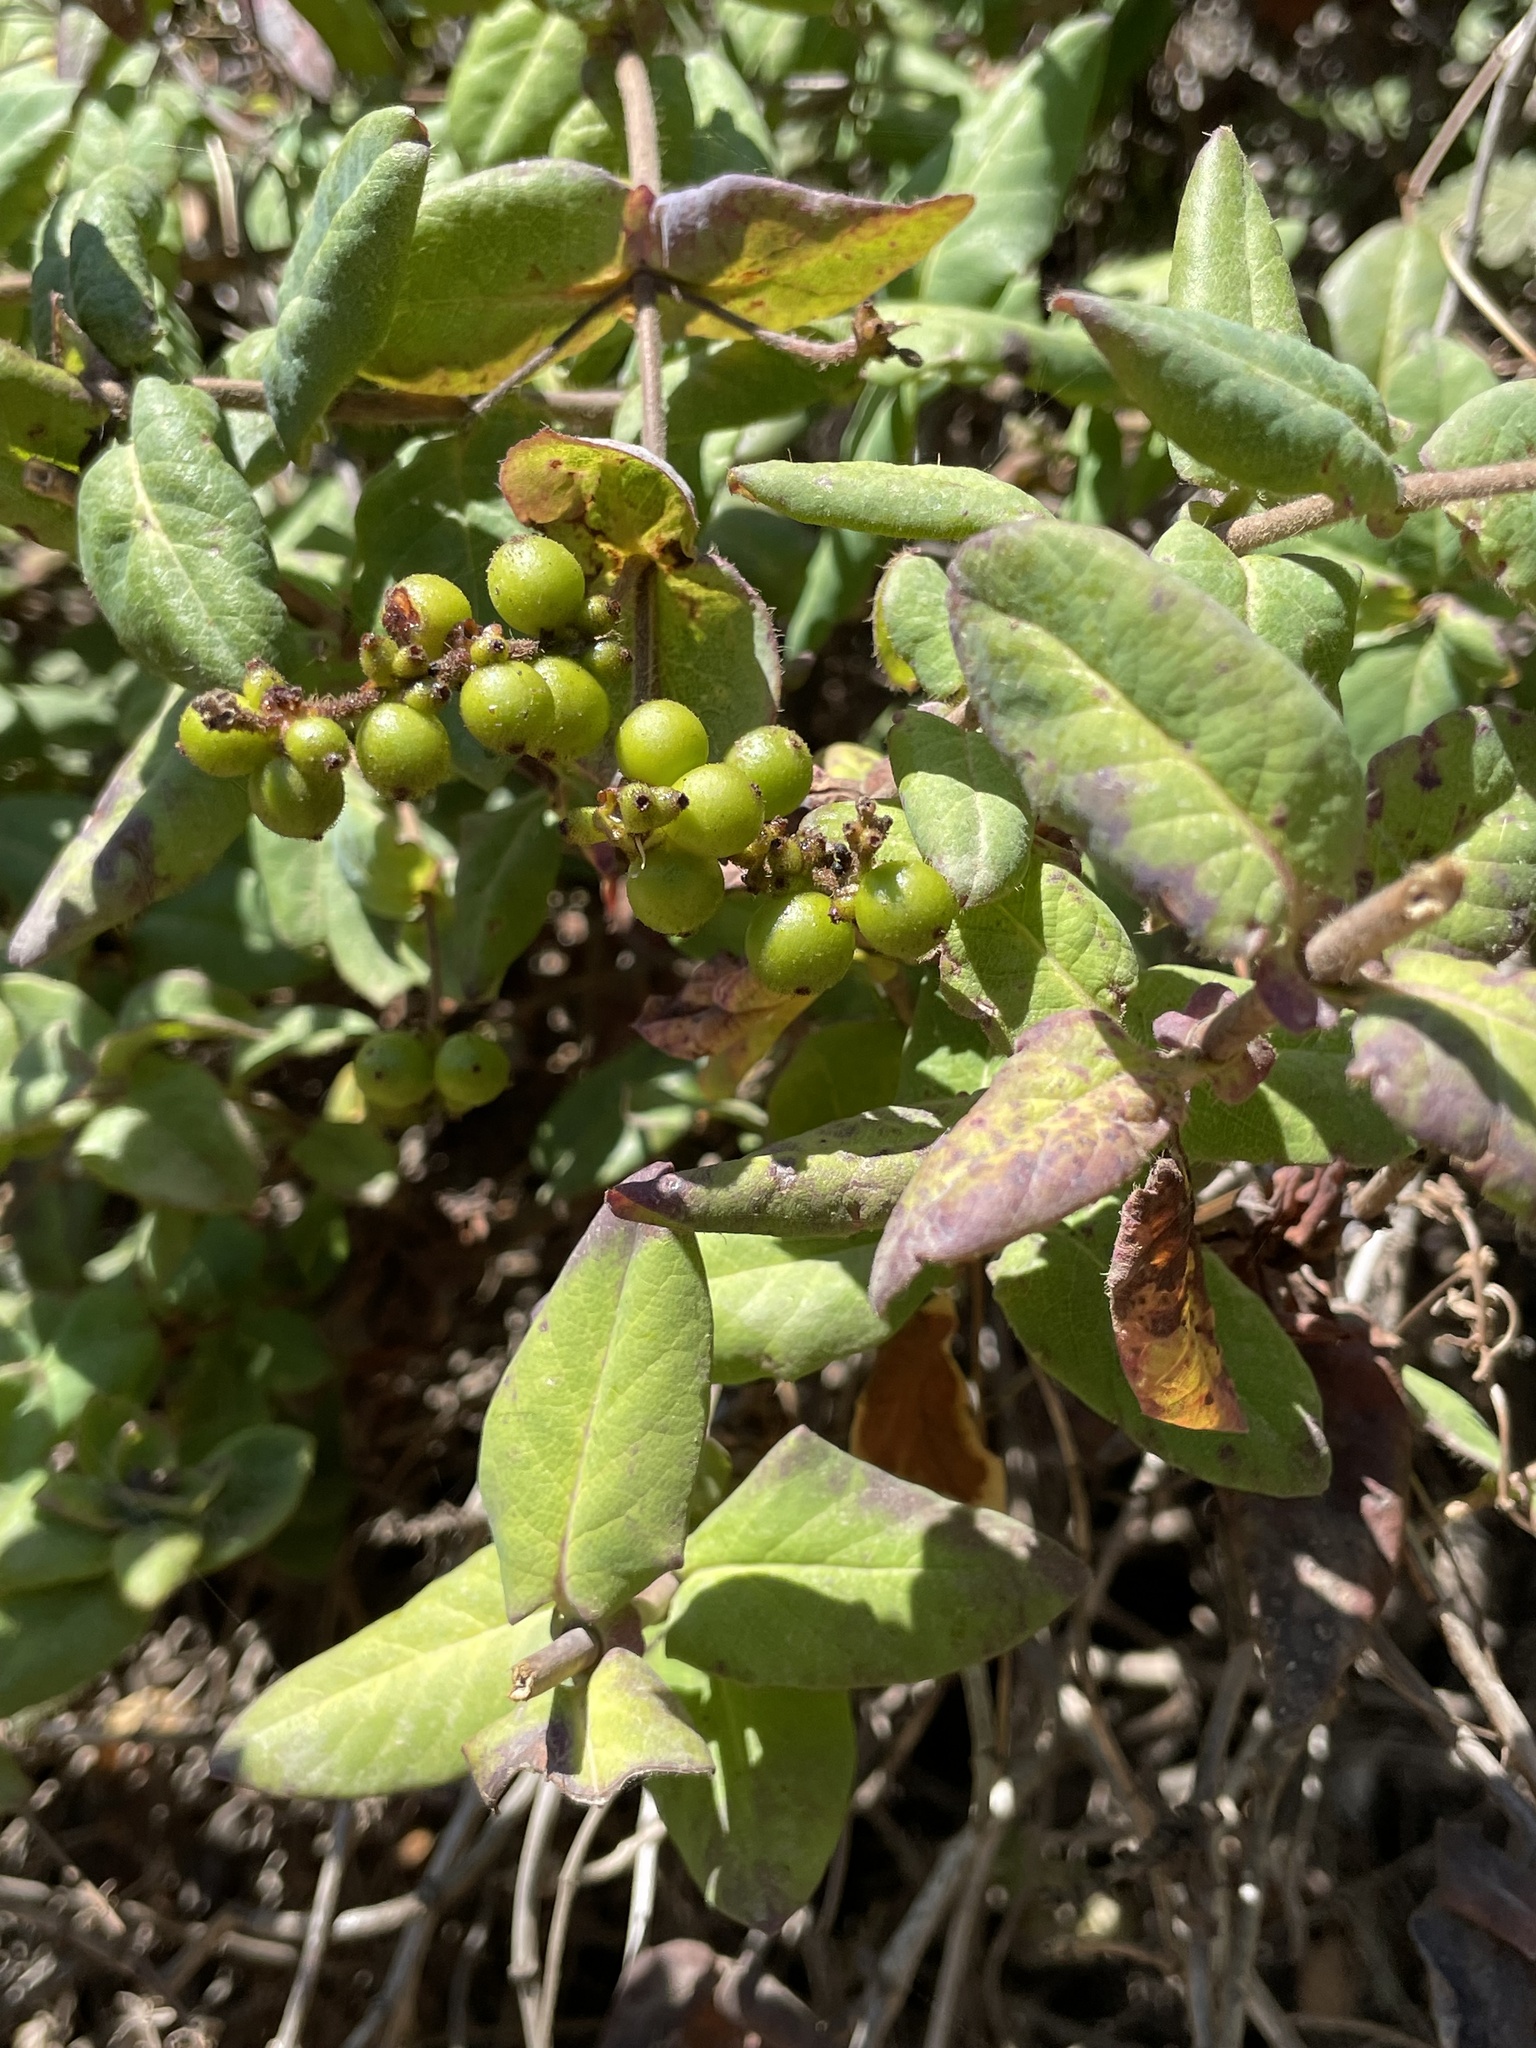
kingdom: Plantae
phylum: Tracheophyta
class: Magnoliopsida
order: Dipsacales
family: Caprifoliaceae
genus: Lonicera
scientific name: Lonicera hispidula
